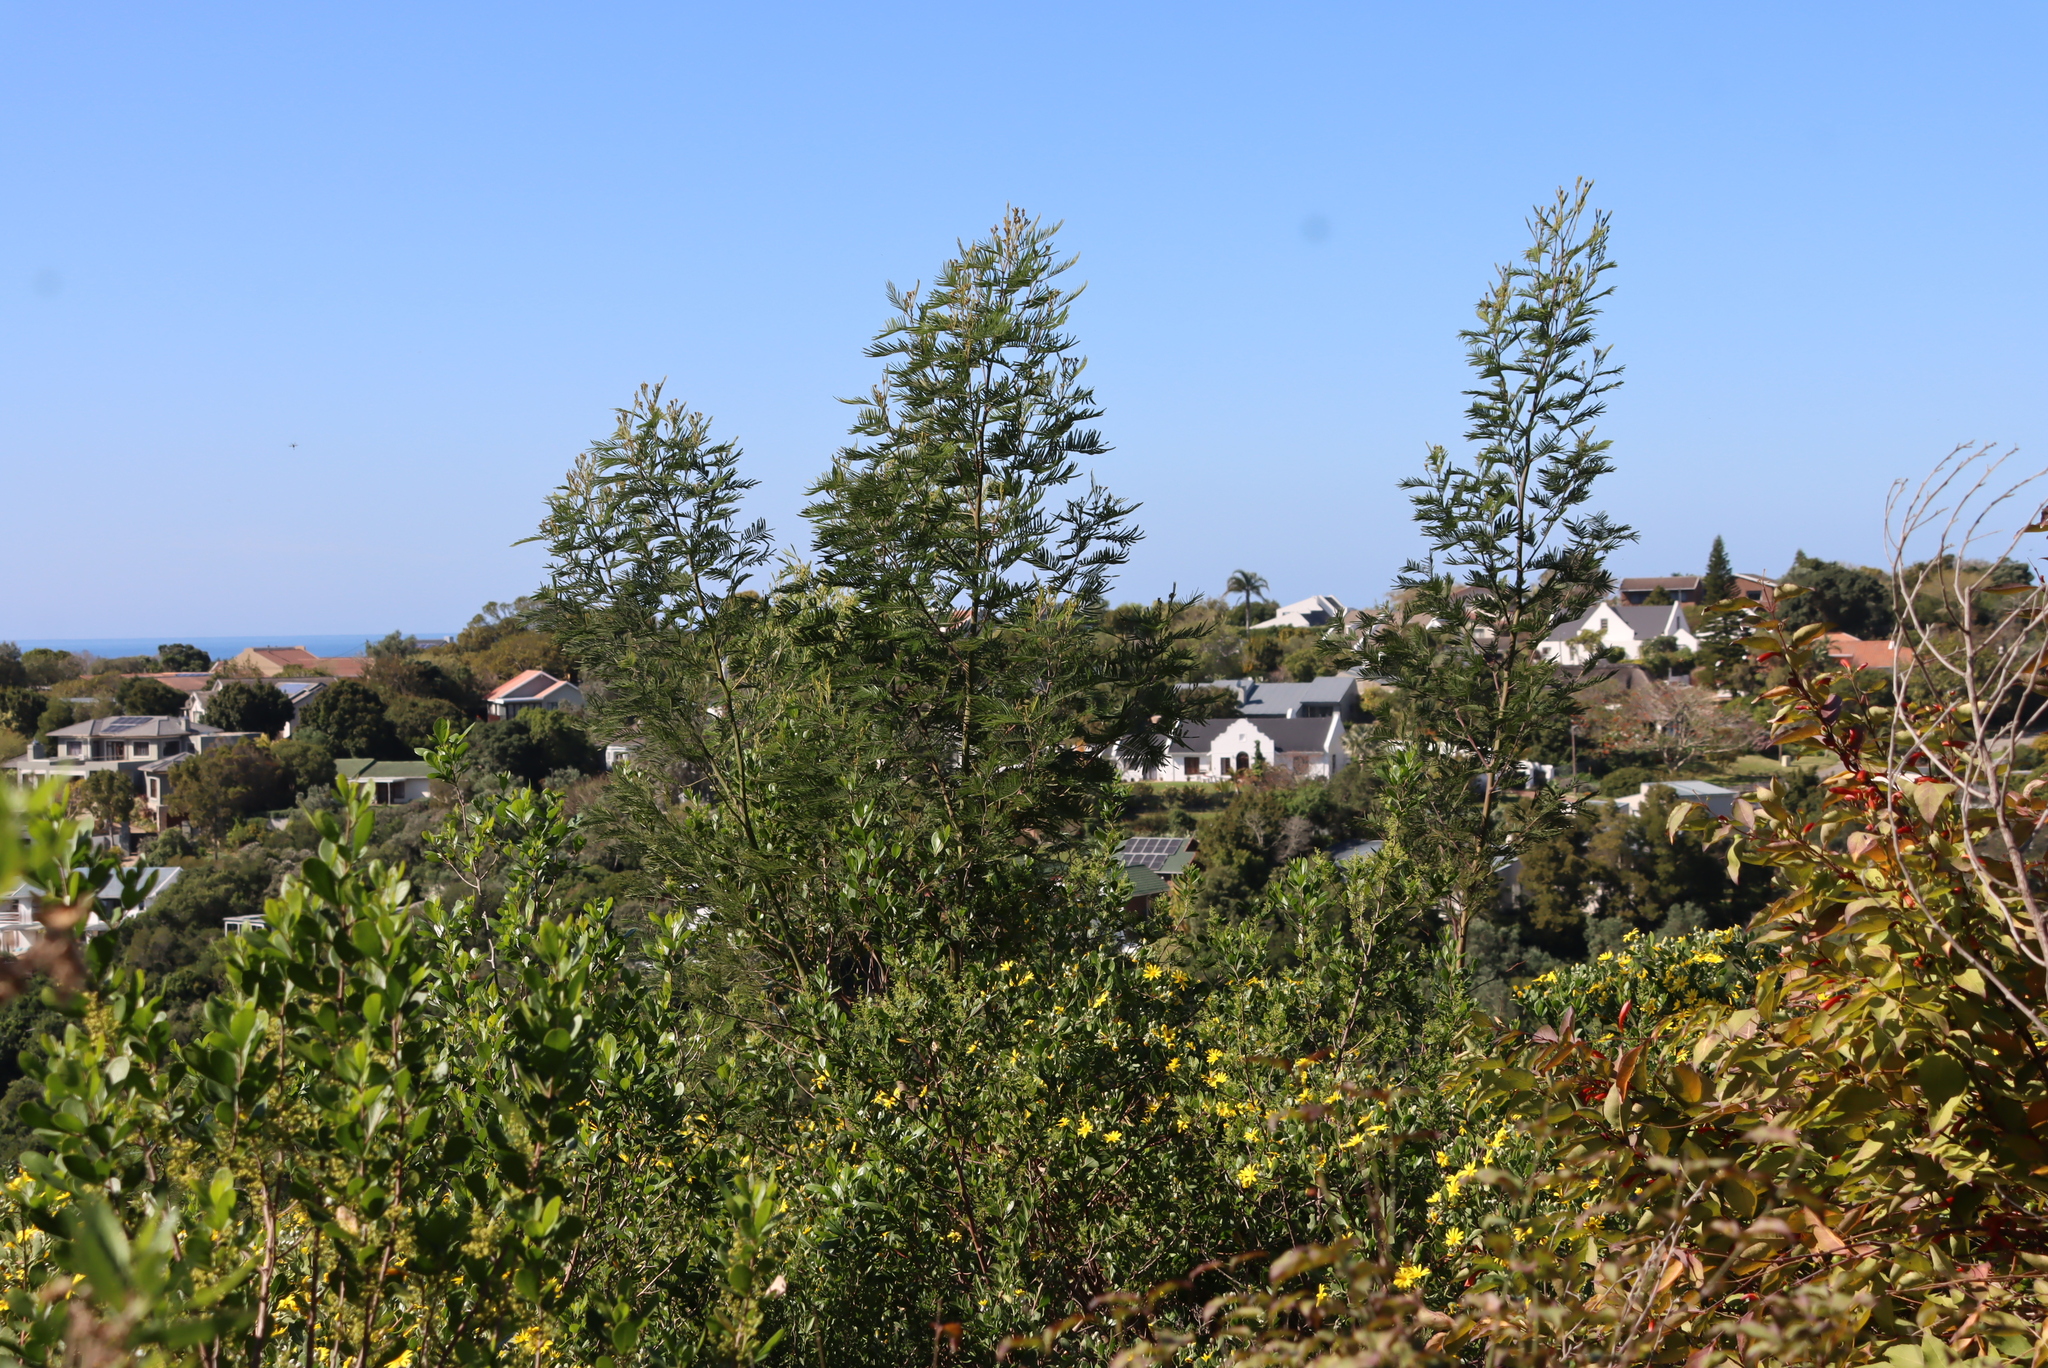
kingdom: Plantae
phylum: Tracheophyta
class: Magnoliopsida
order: Fabales
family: Fabaceae
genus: Acacia
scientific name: Acacia mearnsii
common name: Black wattle
